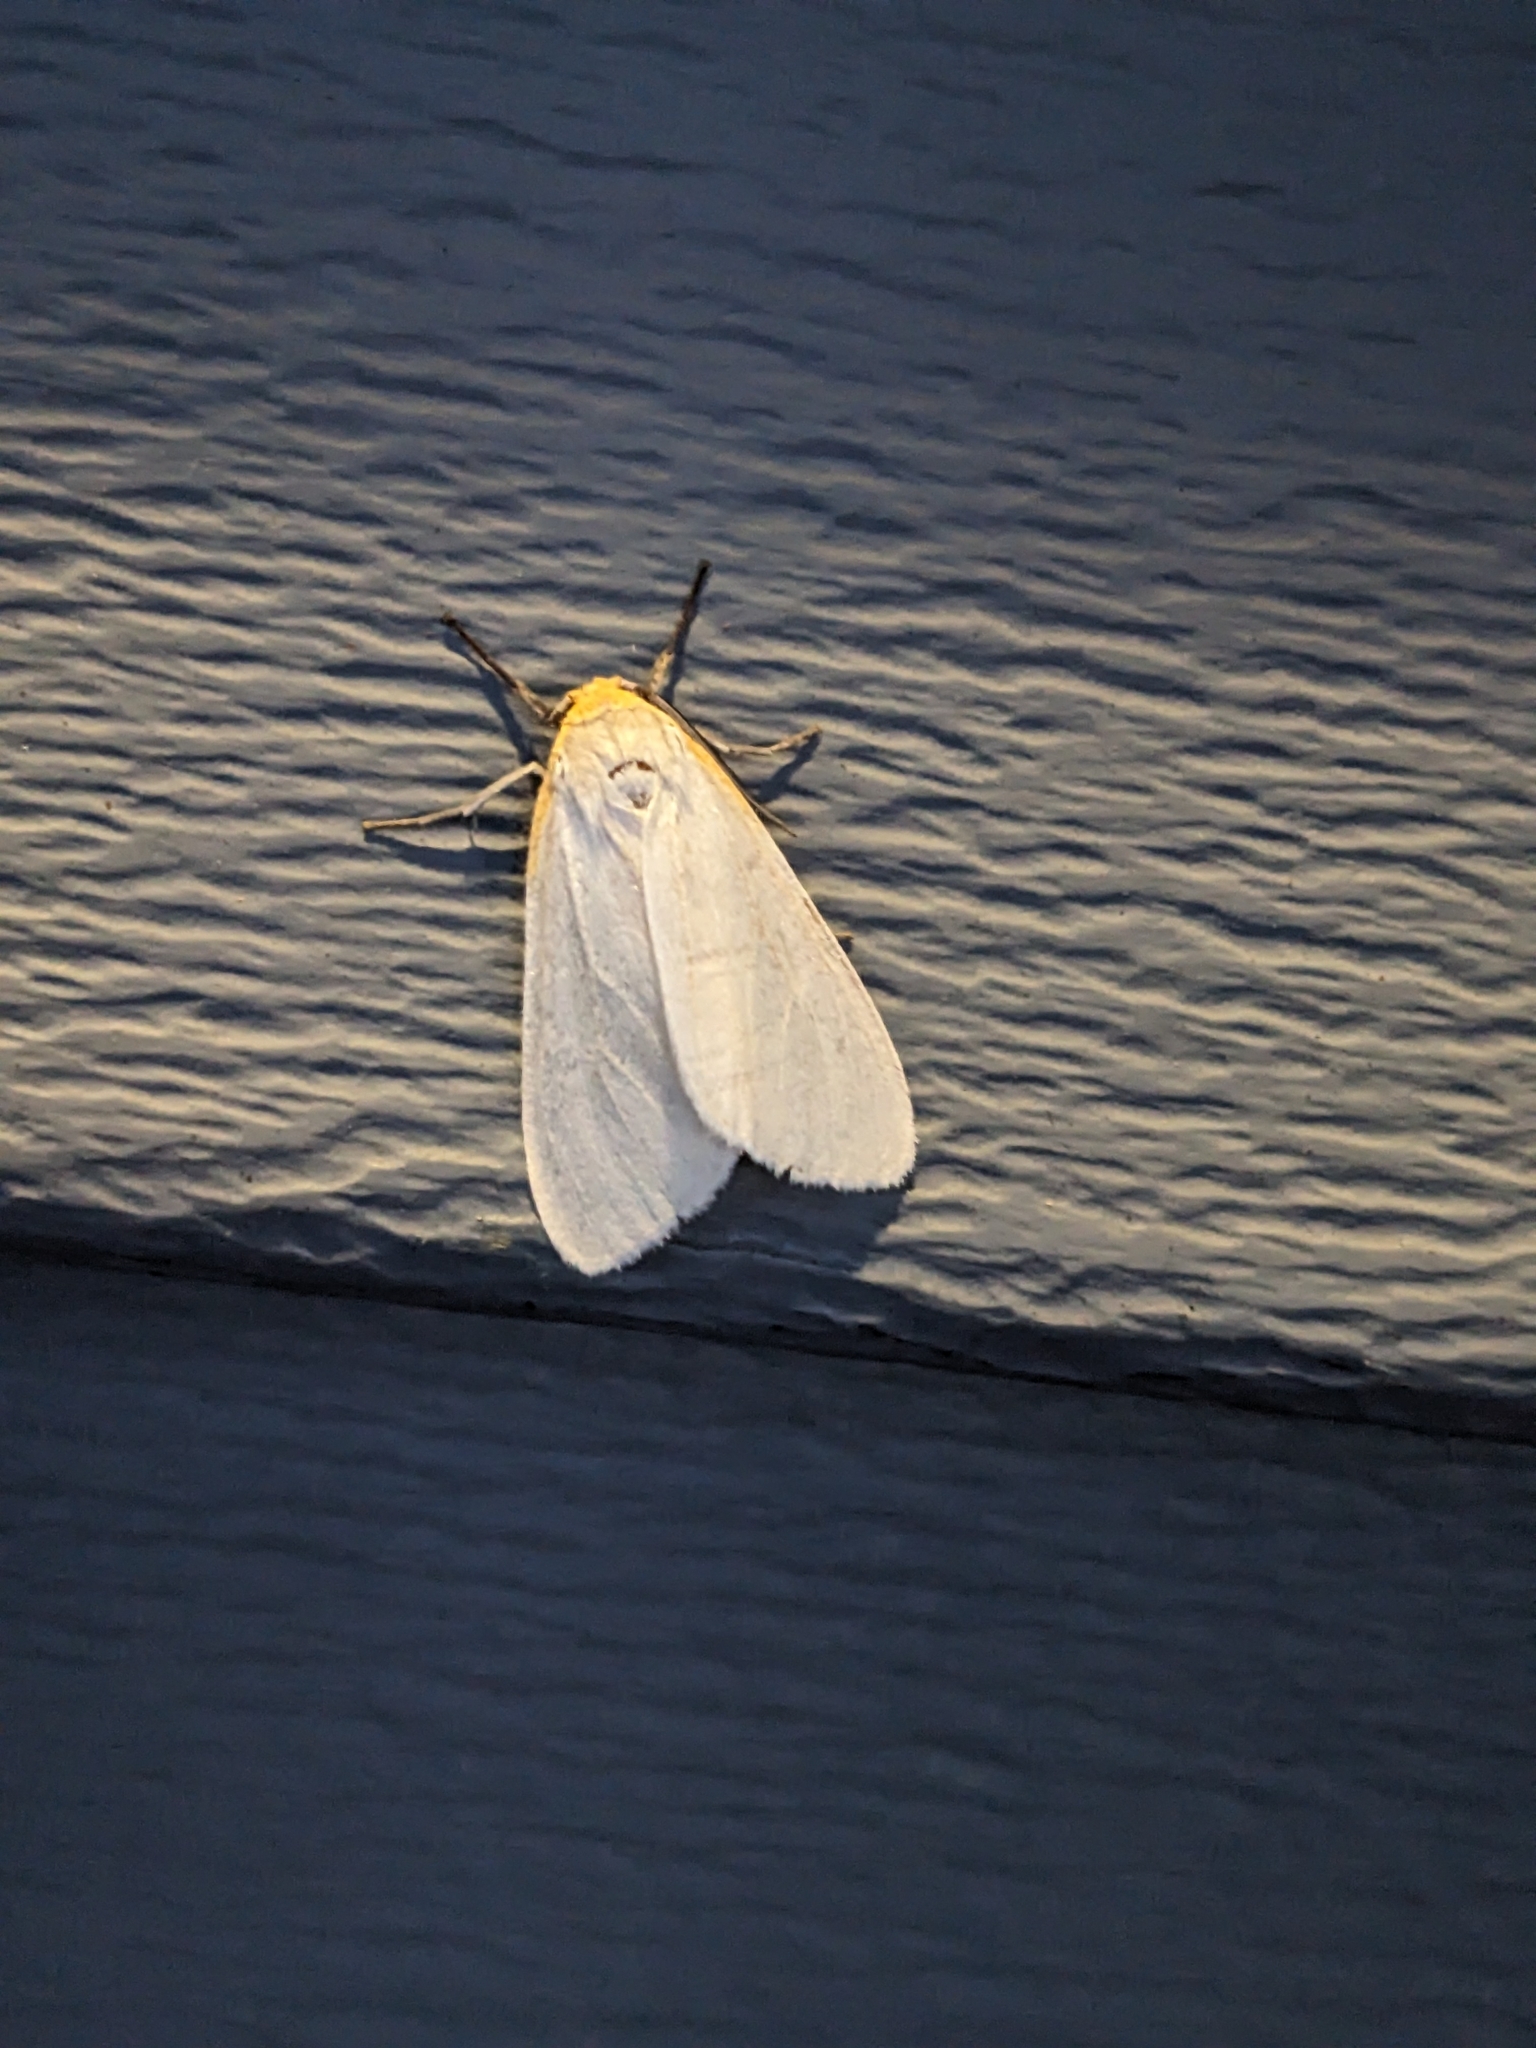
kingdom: Animalia
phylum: Arthropoda
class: Insecta
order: Lepidoptera
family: Erebidae
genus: Cycnia
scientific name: Cycnia tenera
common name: Delicate cycnia moth
